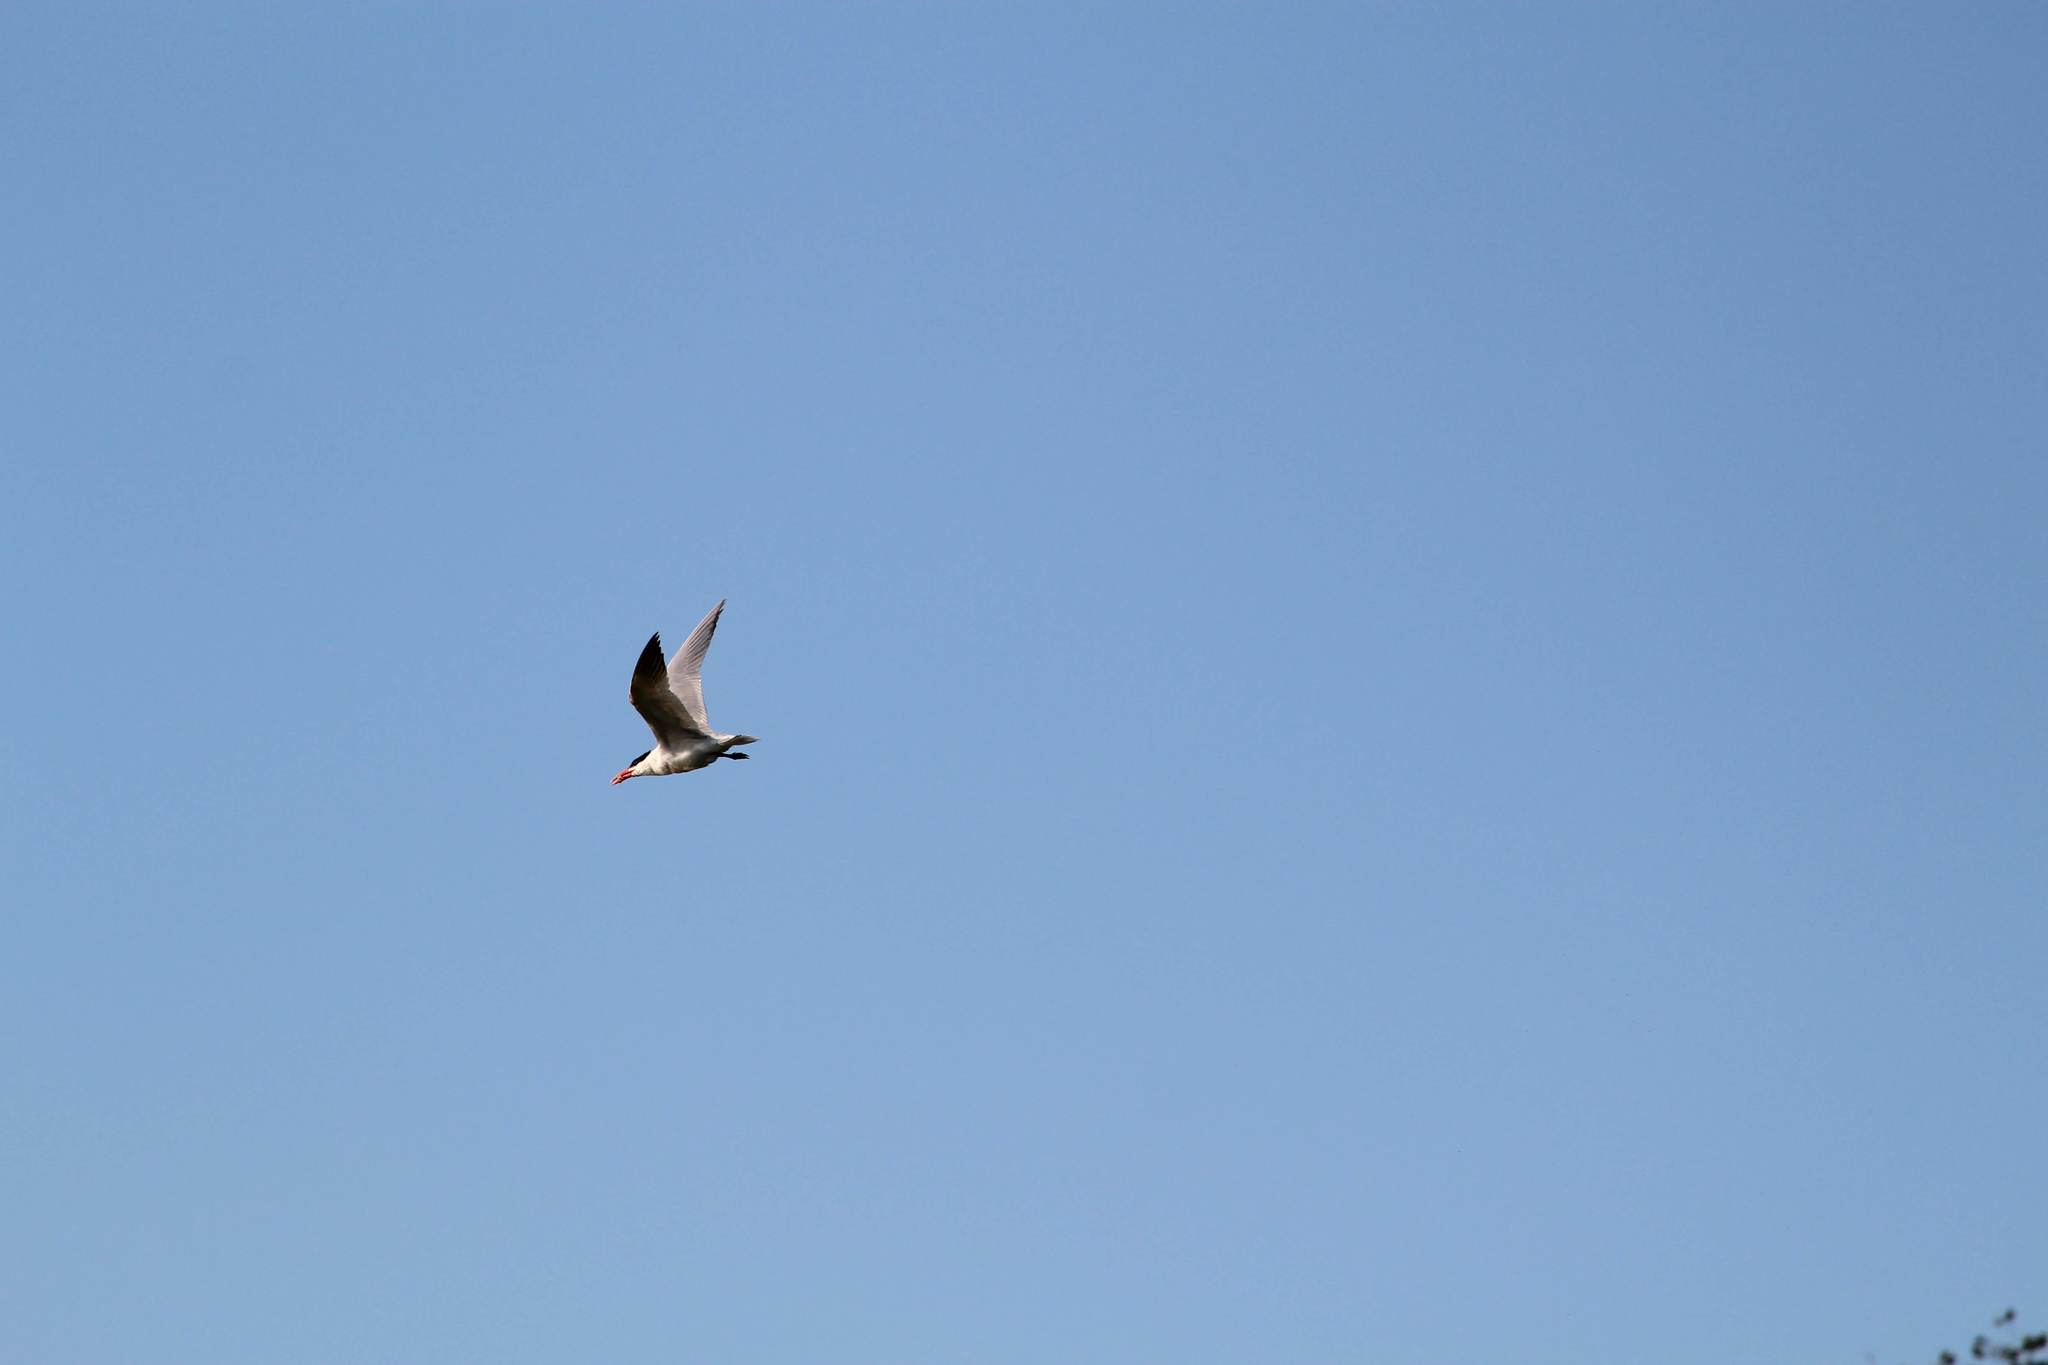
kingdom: Animalia
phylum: Chordata
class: Aves
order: Charadriiformes
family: Laridae
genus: Hydroprogne
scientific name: Hydroprogne caspia
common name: Caspian tern
